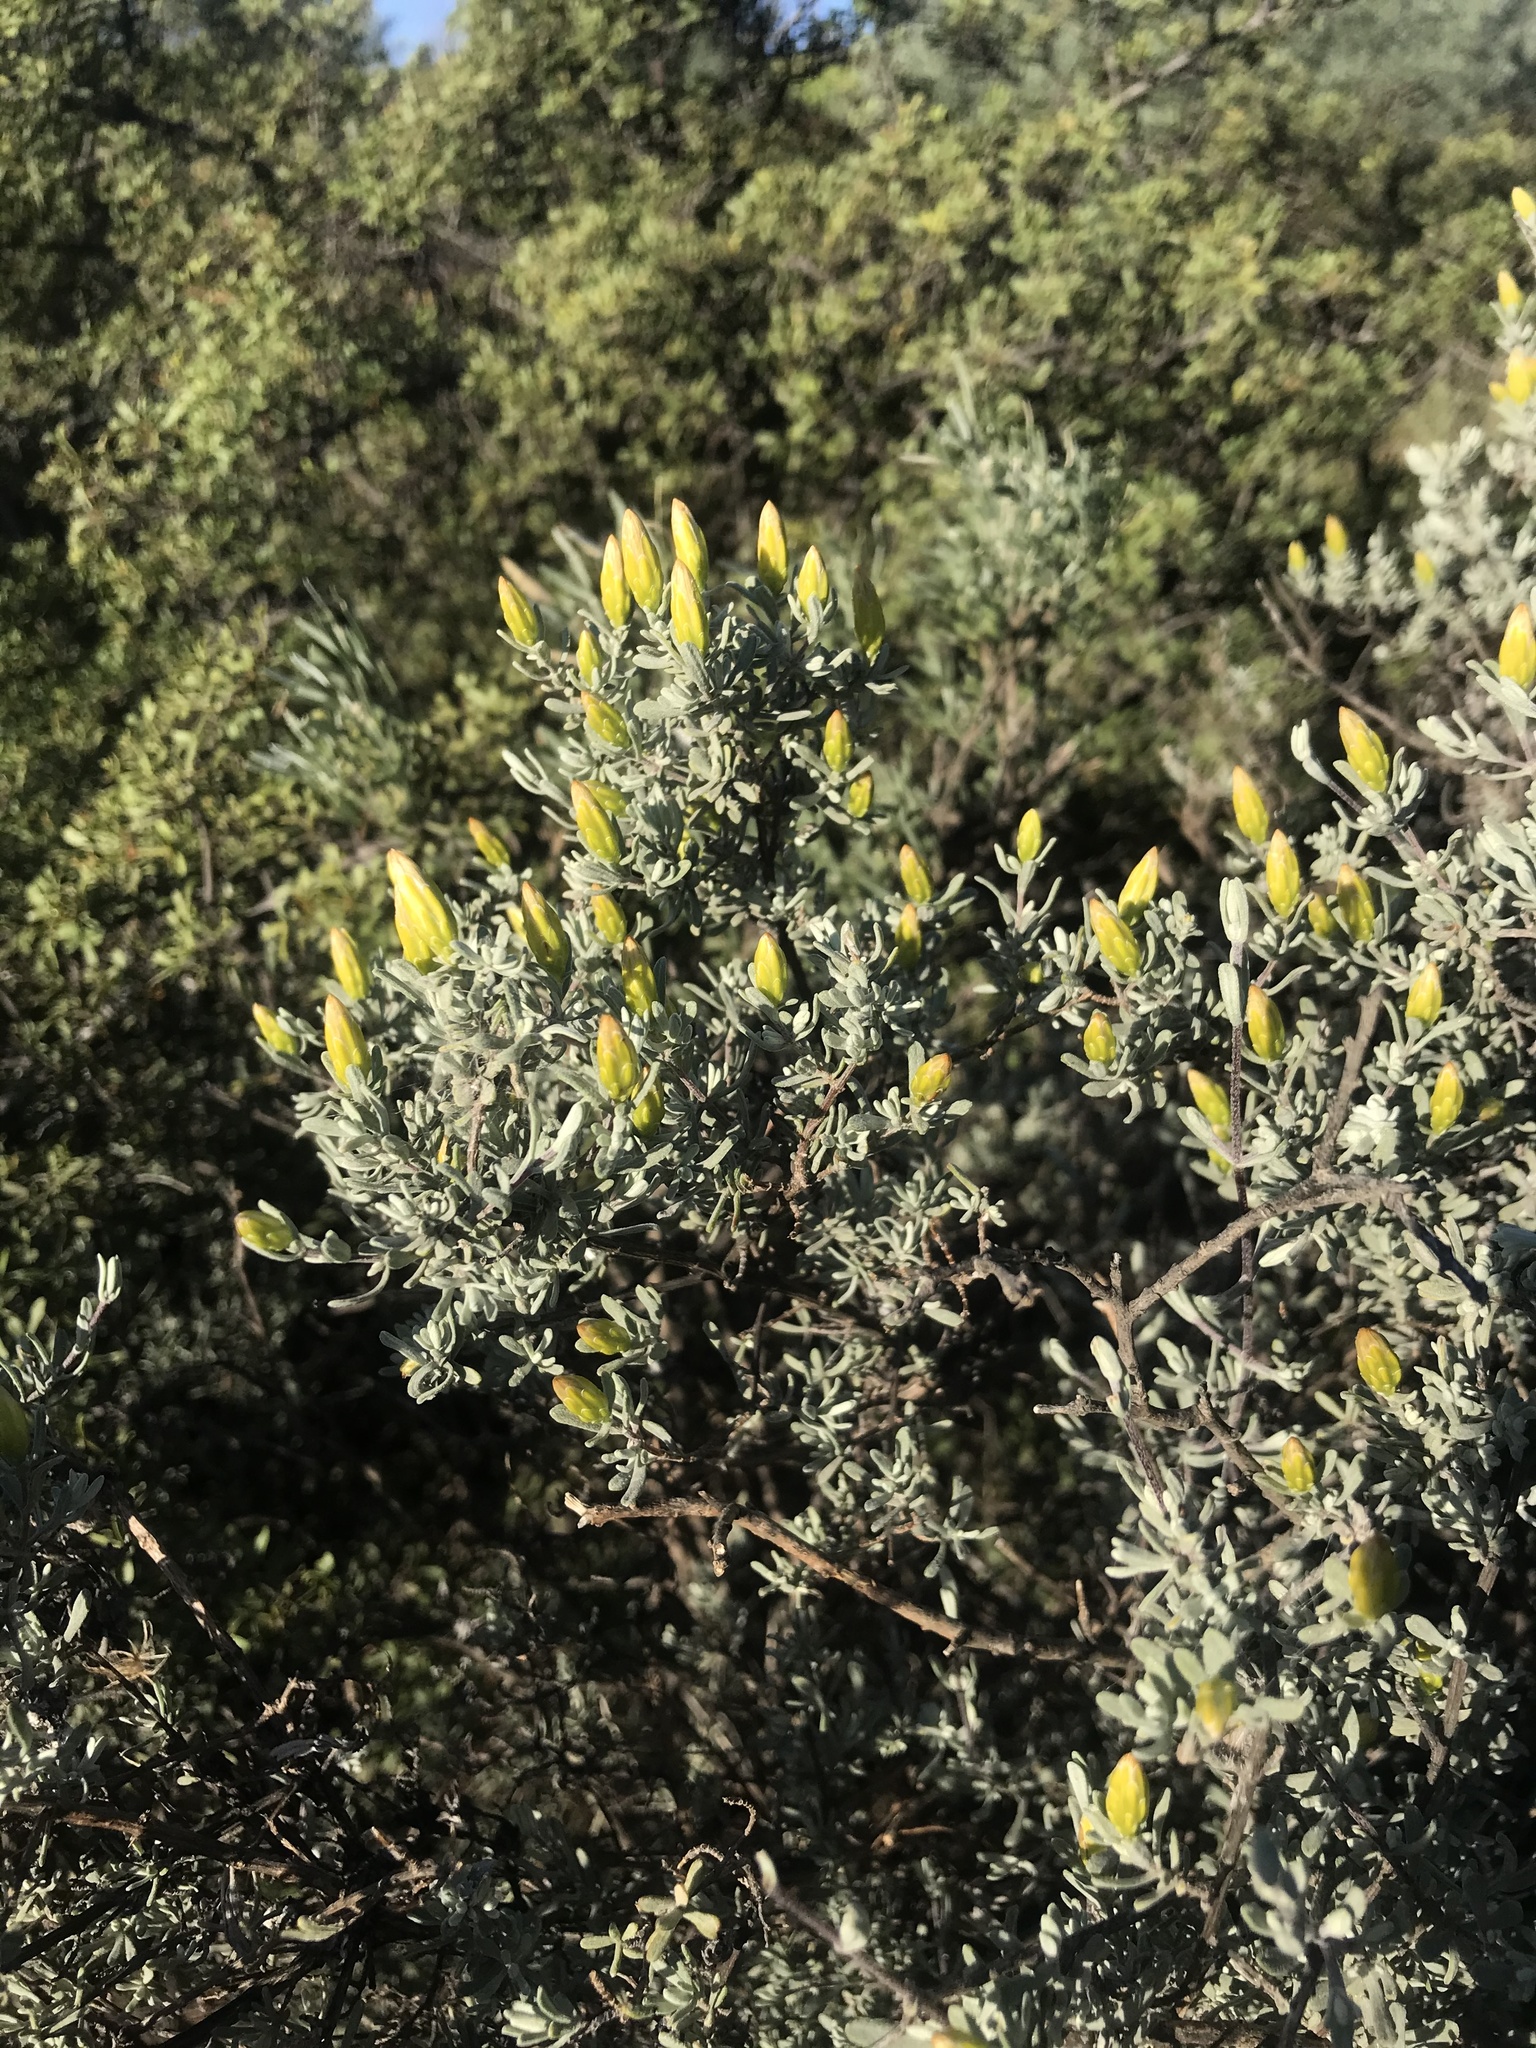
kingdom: Plantae
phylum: Tracheophyta
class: Magnoliopsida
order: Asterales
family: Asteraceae
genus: Pteronia
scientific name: Pteronia incana
